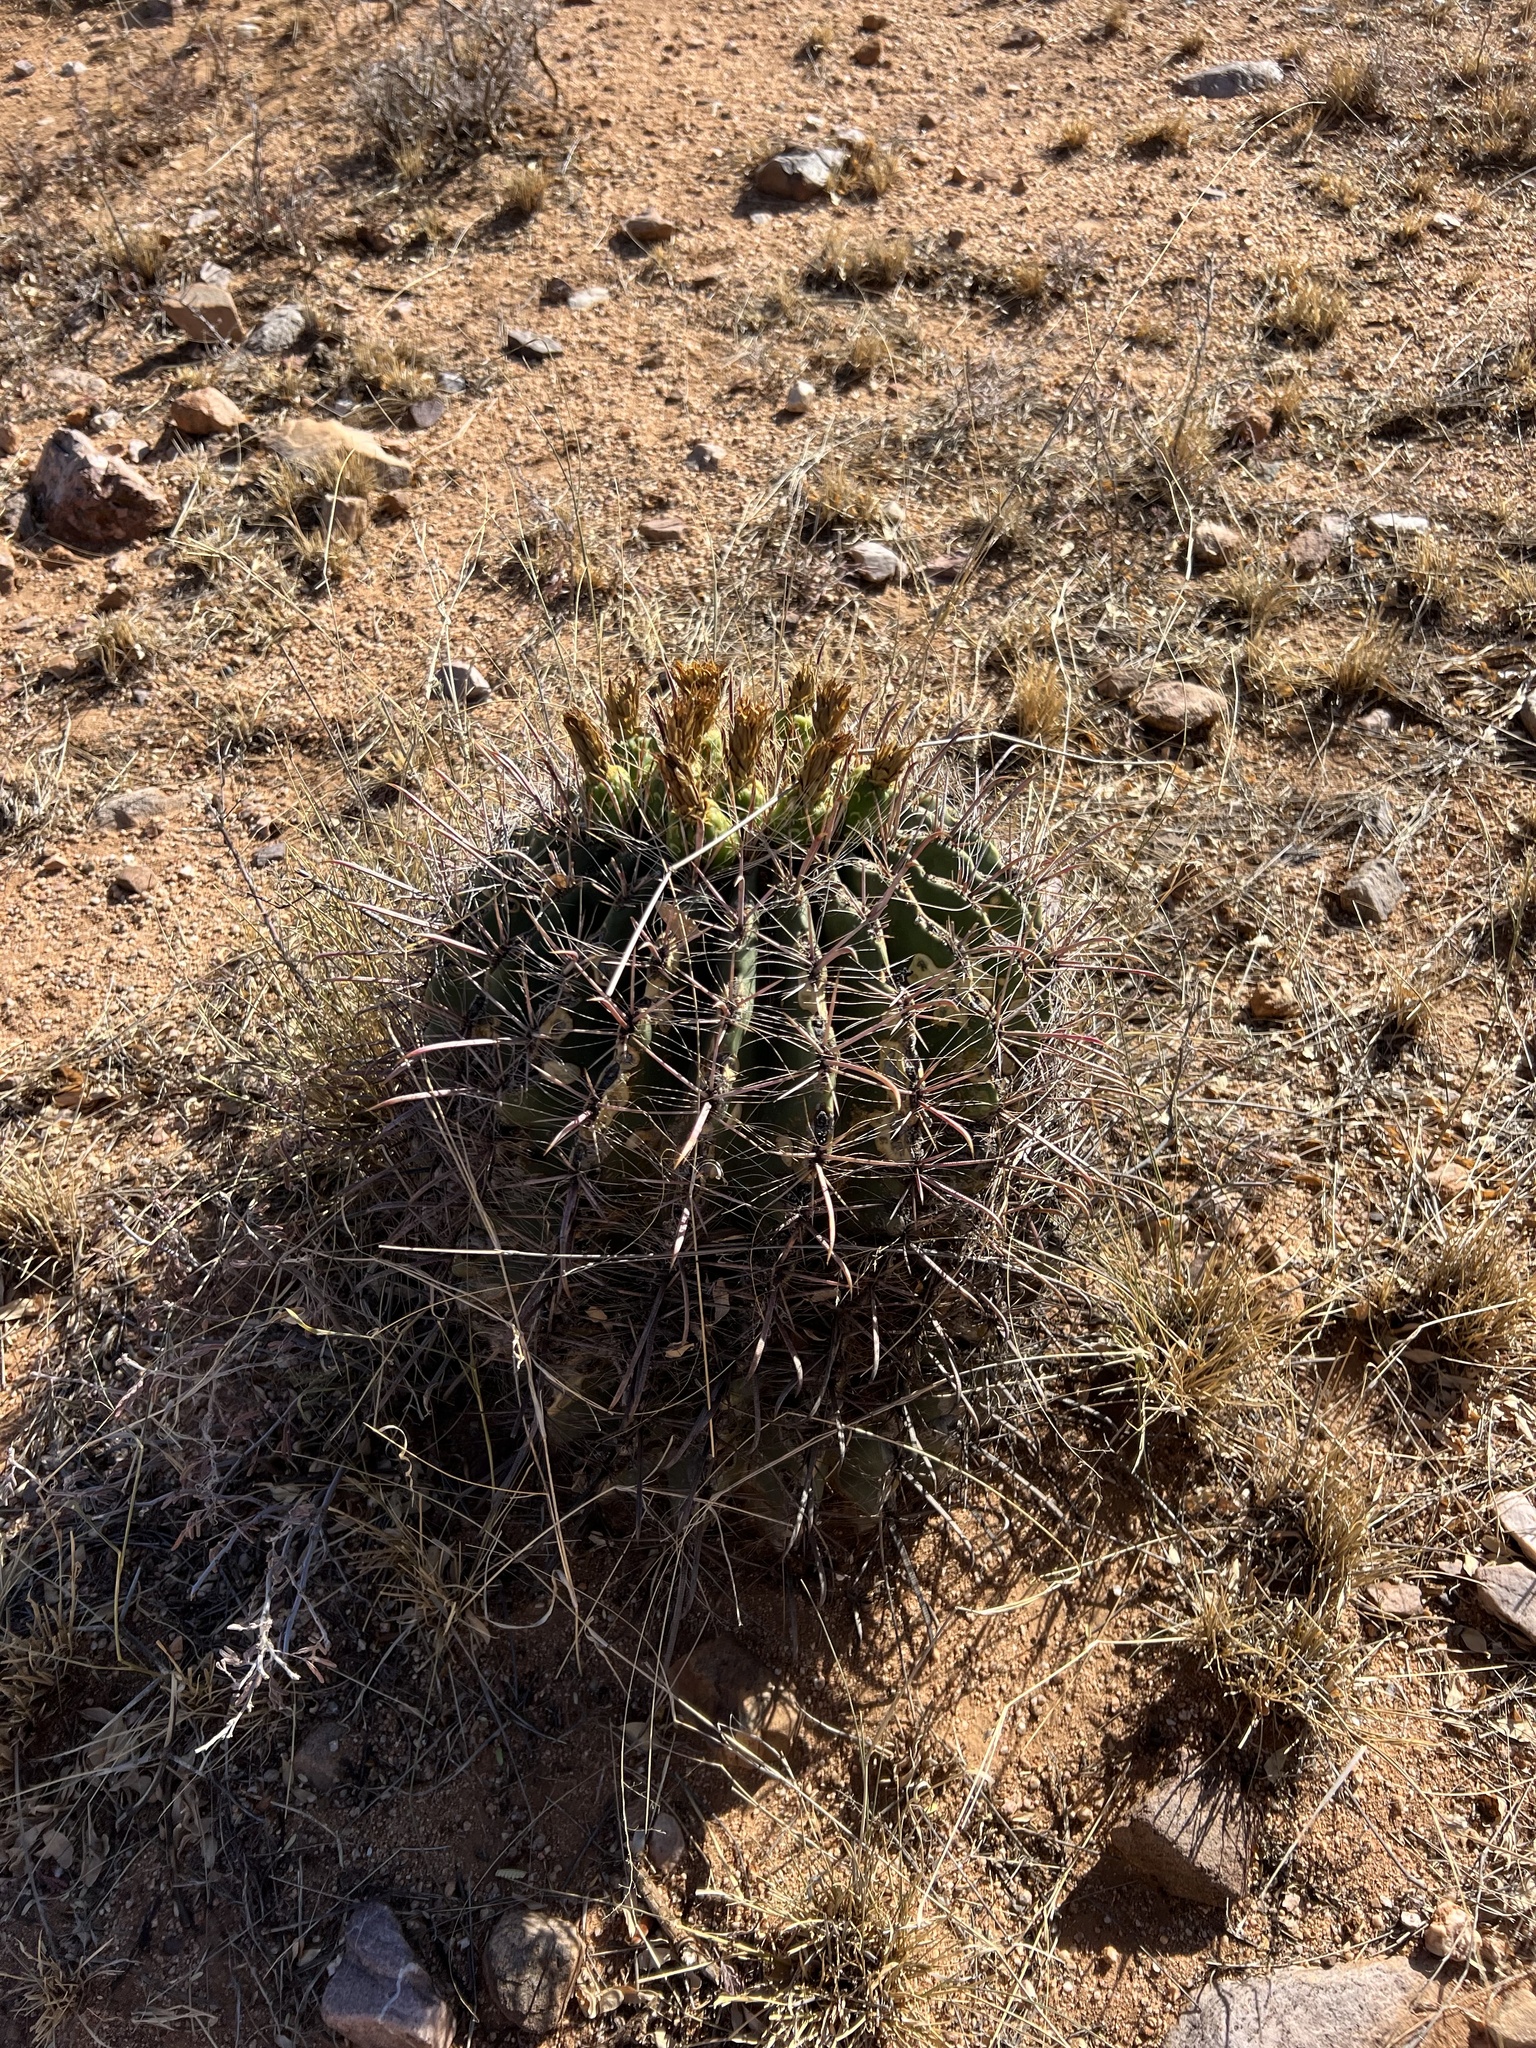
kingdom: Plantae
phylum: Tracheophyta
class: Magnoliopsida
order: Caryophyllales
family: Cactaceae
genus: Ferocactus
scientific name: Ferocactus wislizeni
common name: Candy barrel cactus
